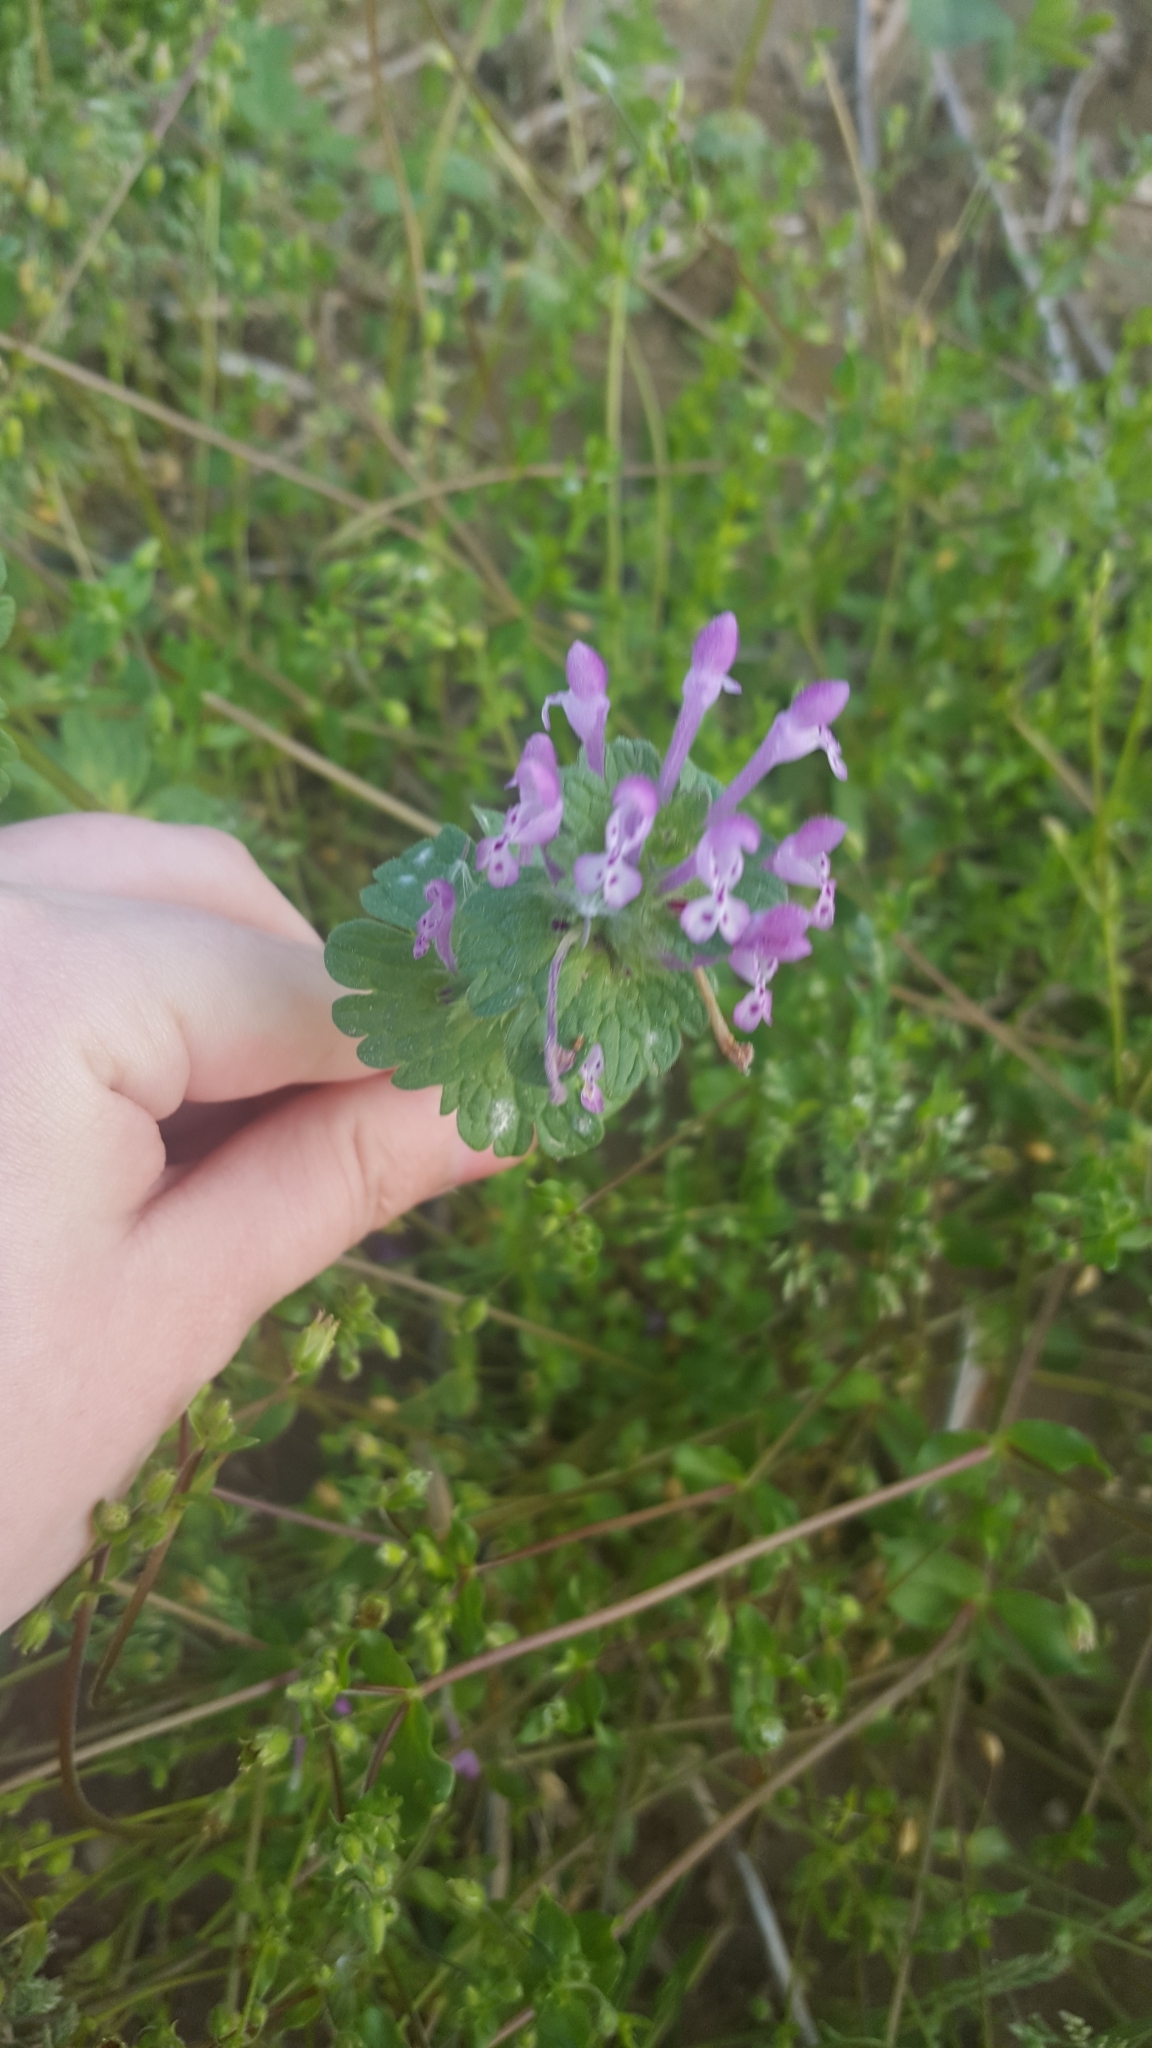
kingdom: Plantae
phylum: Tracheophyta
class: Magnoliopsida
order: Lamiales
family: Lamiaceae
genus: Lamium
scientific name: Lamium amplexicaule
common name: Henbit dead-nettle
